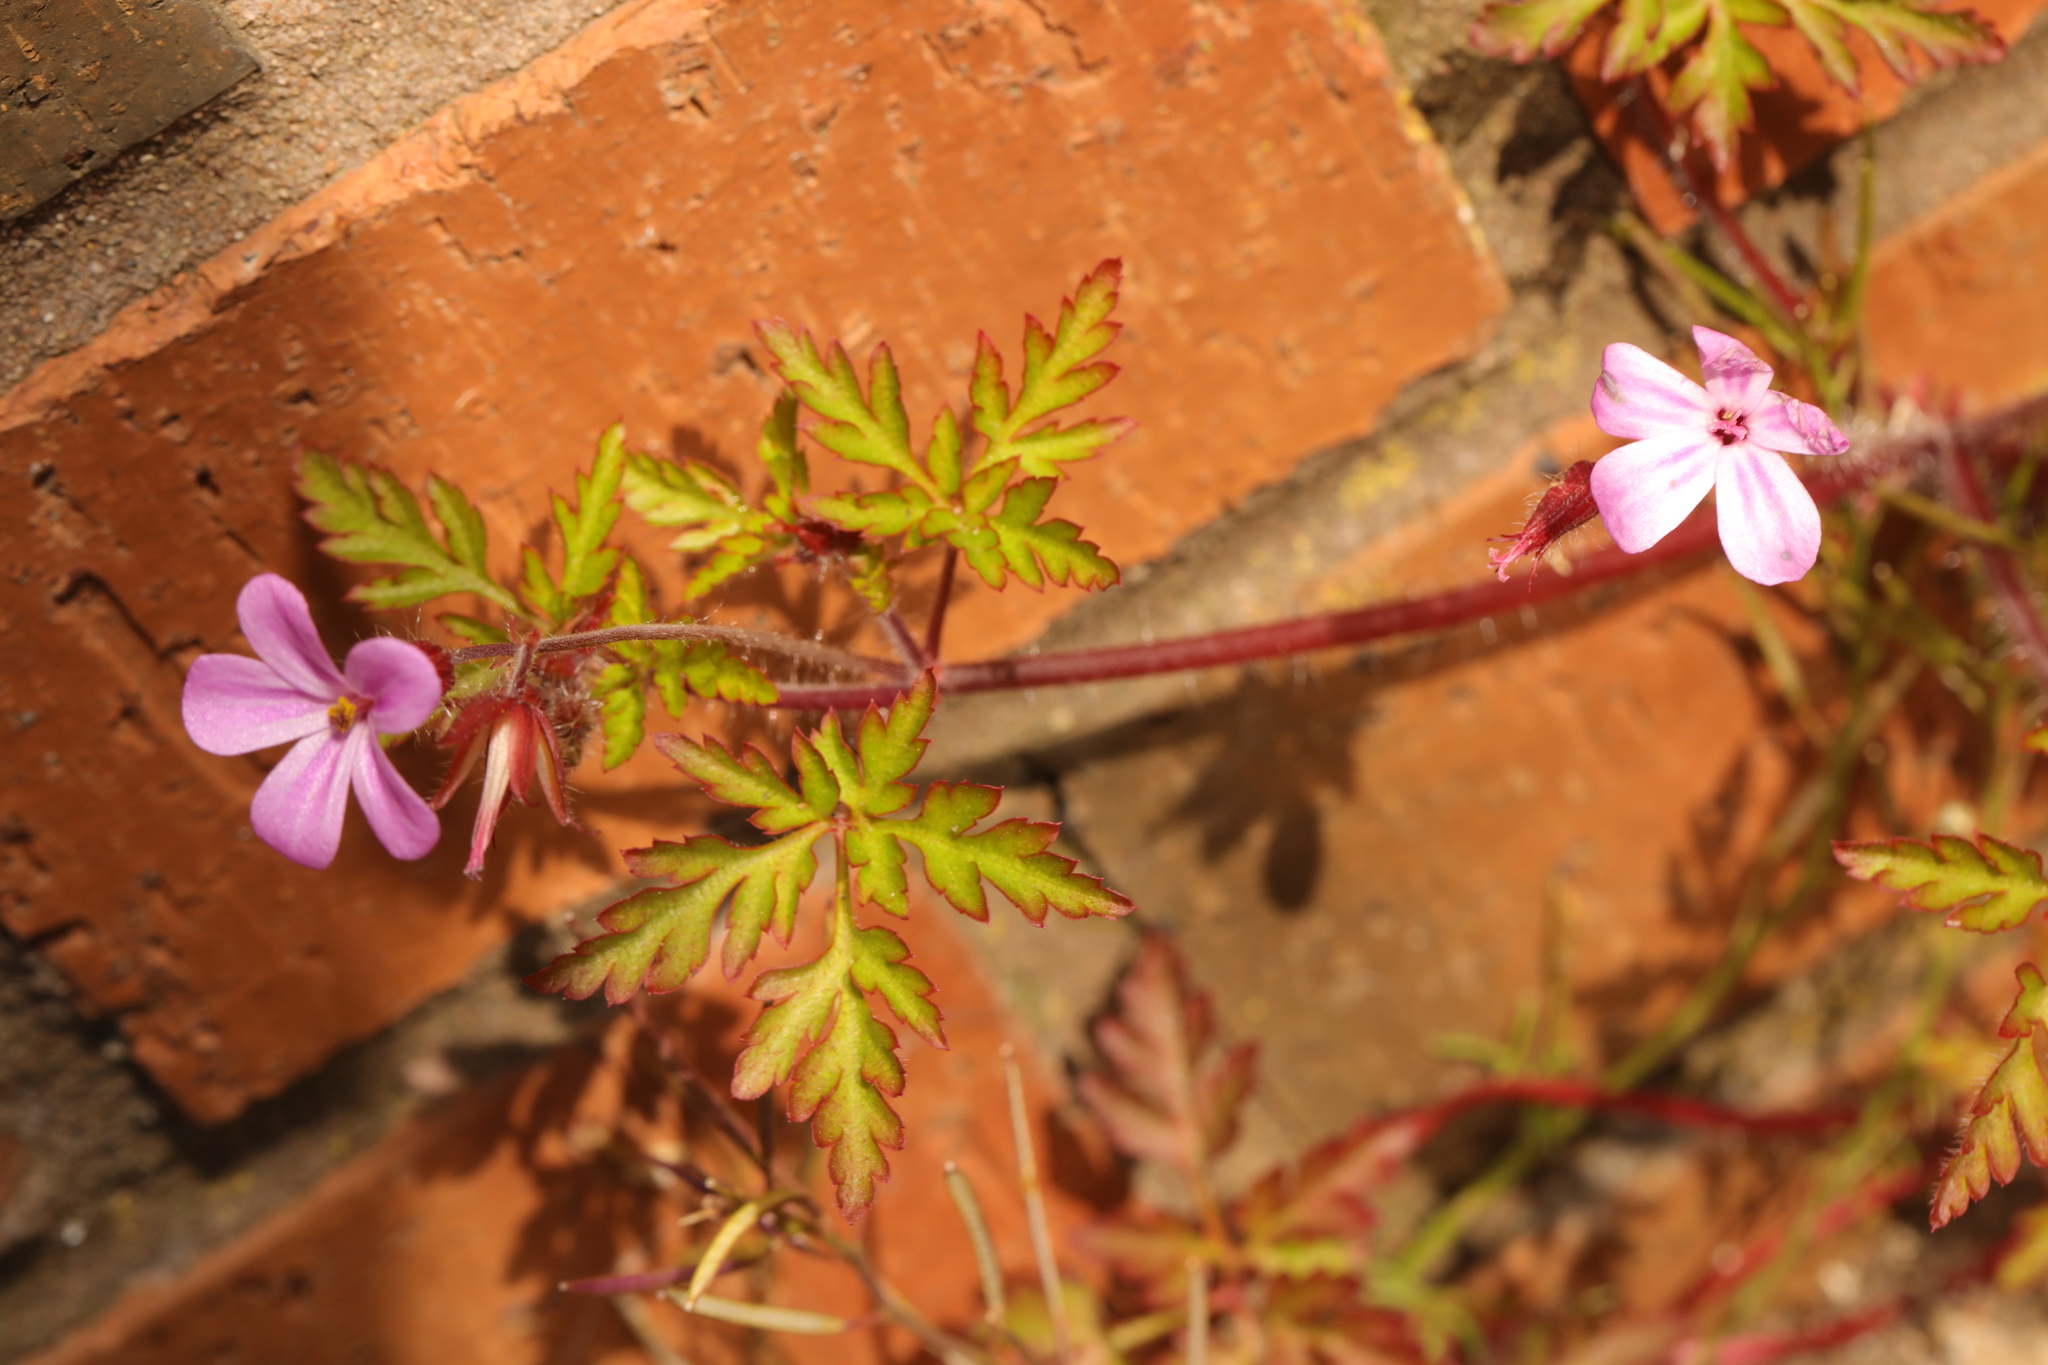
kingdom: Plantae
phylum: Tracheophyta
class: Magnoliopsida
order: Geraniales
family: Geraniaceae
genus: Geranium
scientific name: Geranium robertianum
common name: Herb-robert
